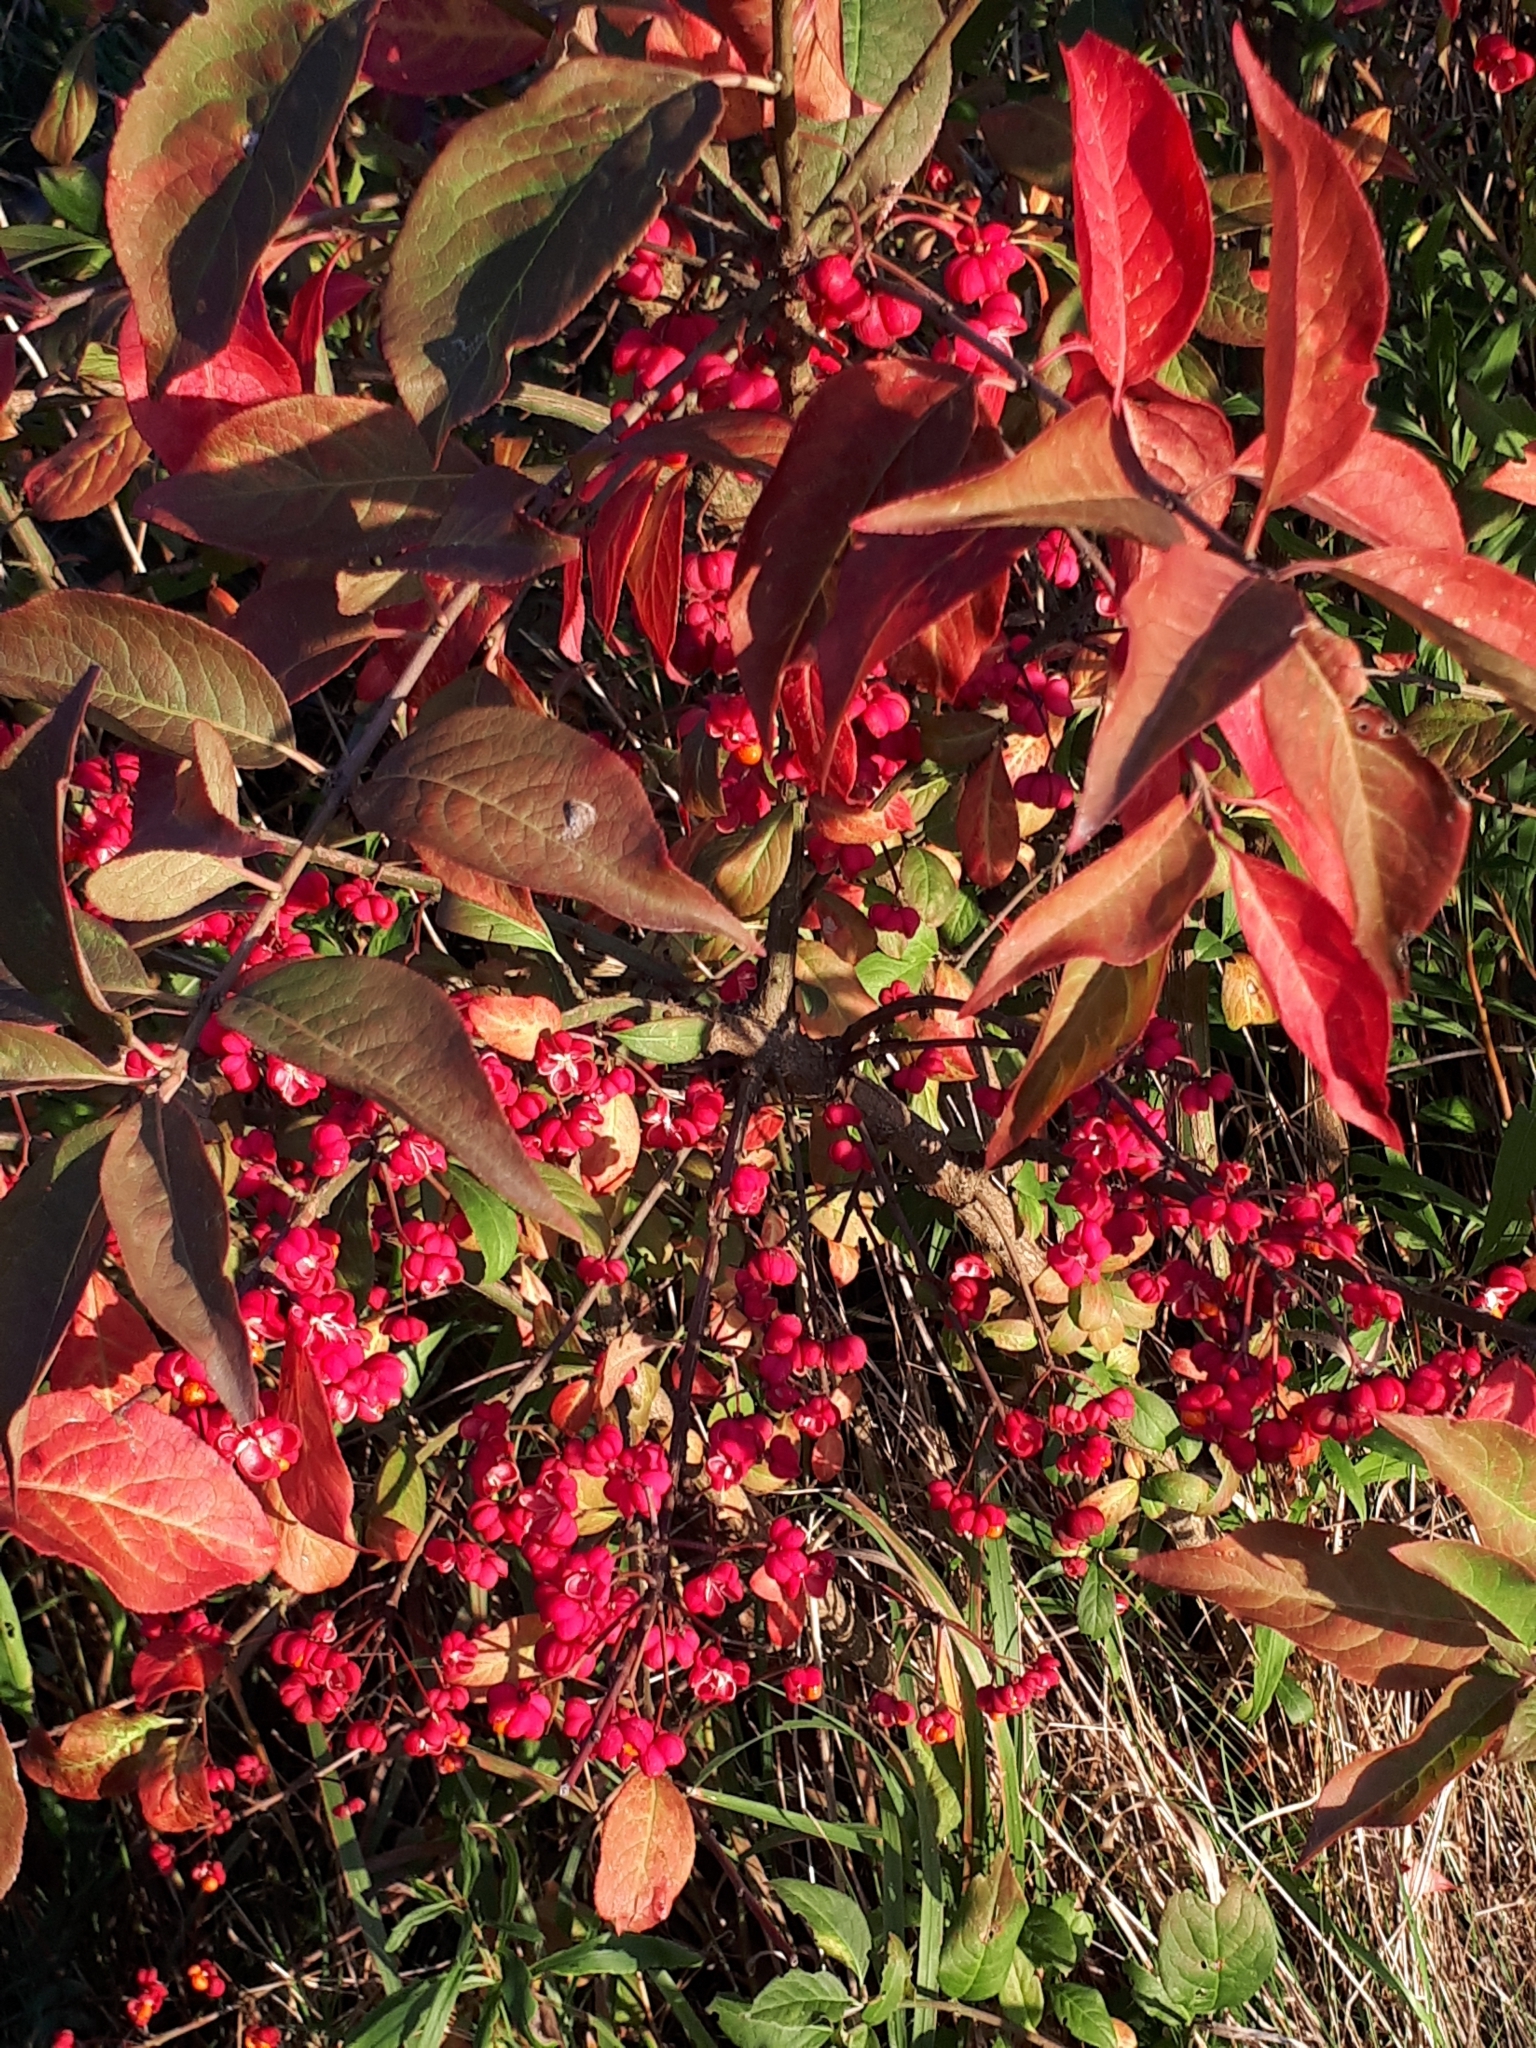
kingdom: Plantae
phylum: Tracheophyta
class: Magnoliopsida
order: Celastrales
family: Celastraceae
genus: Euonymus
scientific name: Euonymus europaeus
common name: Spindle
